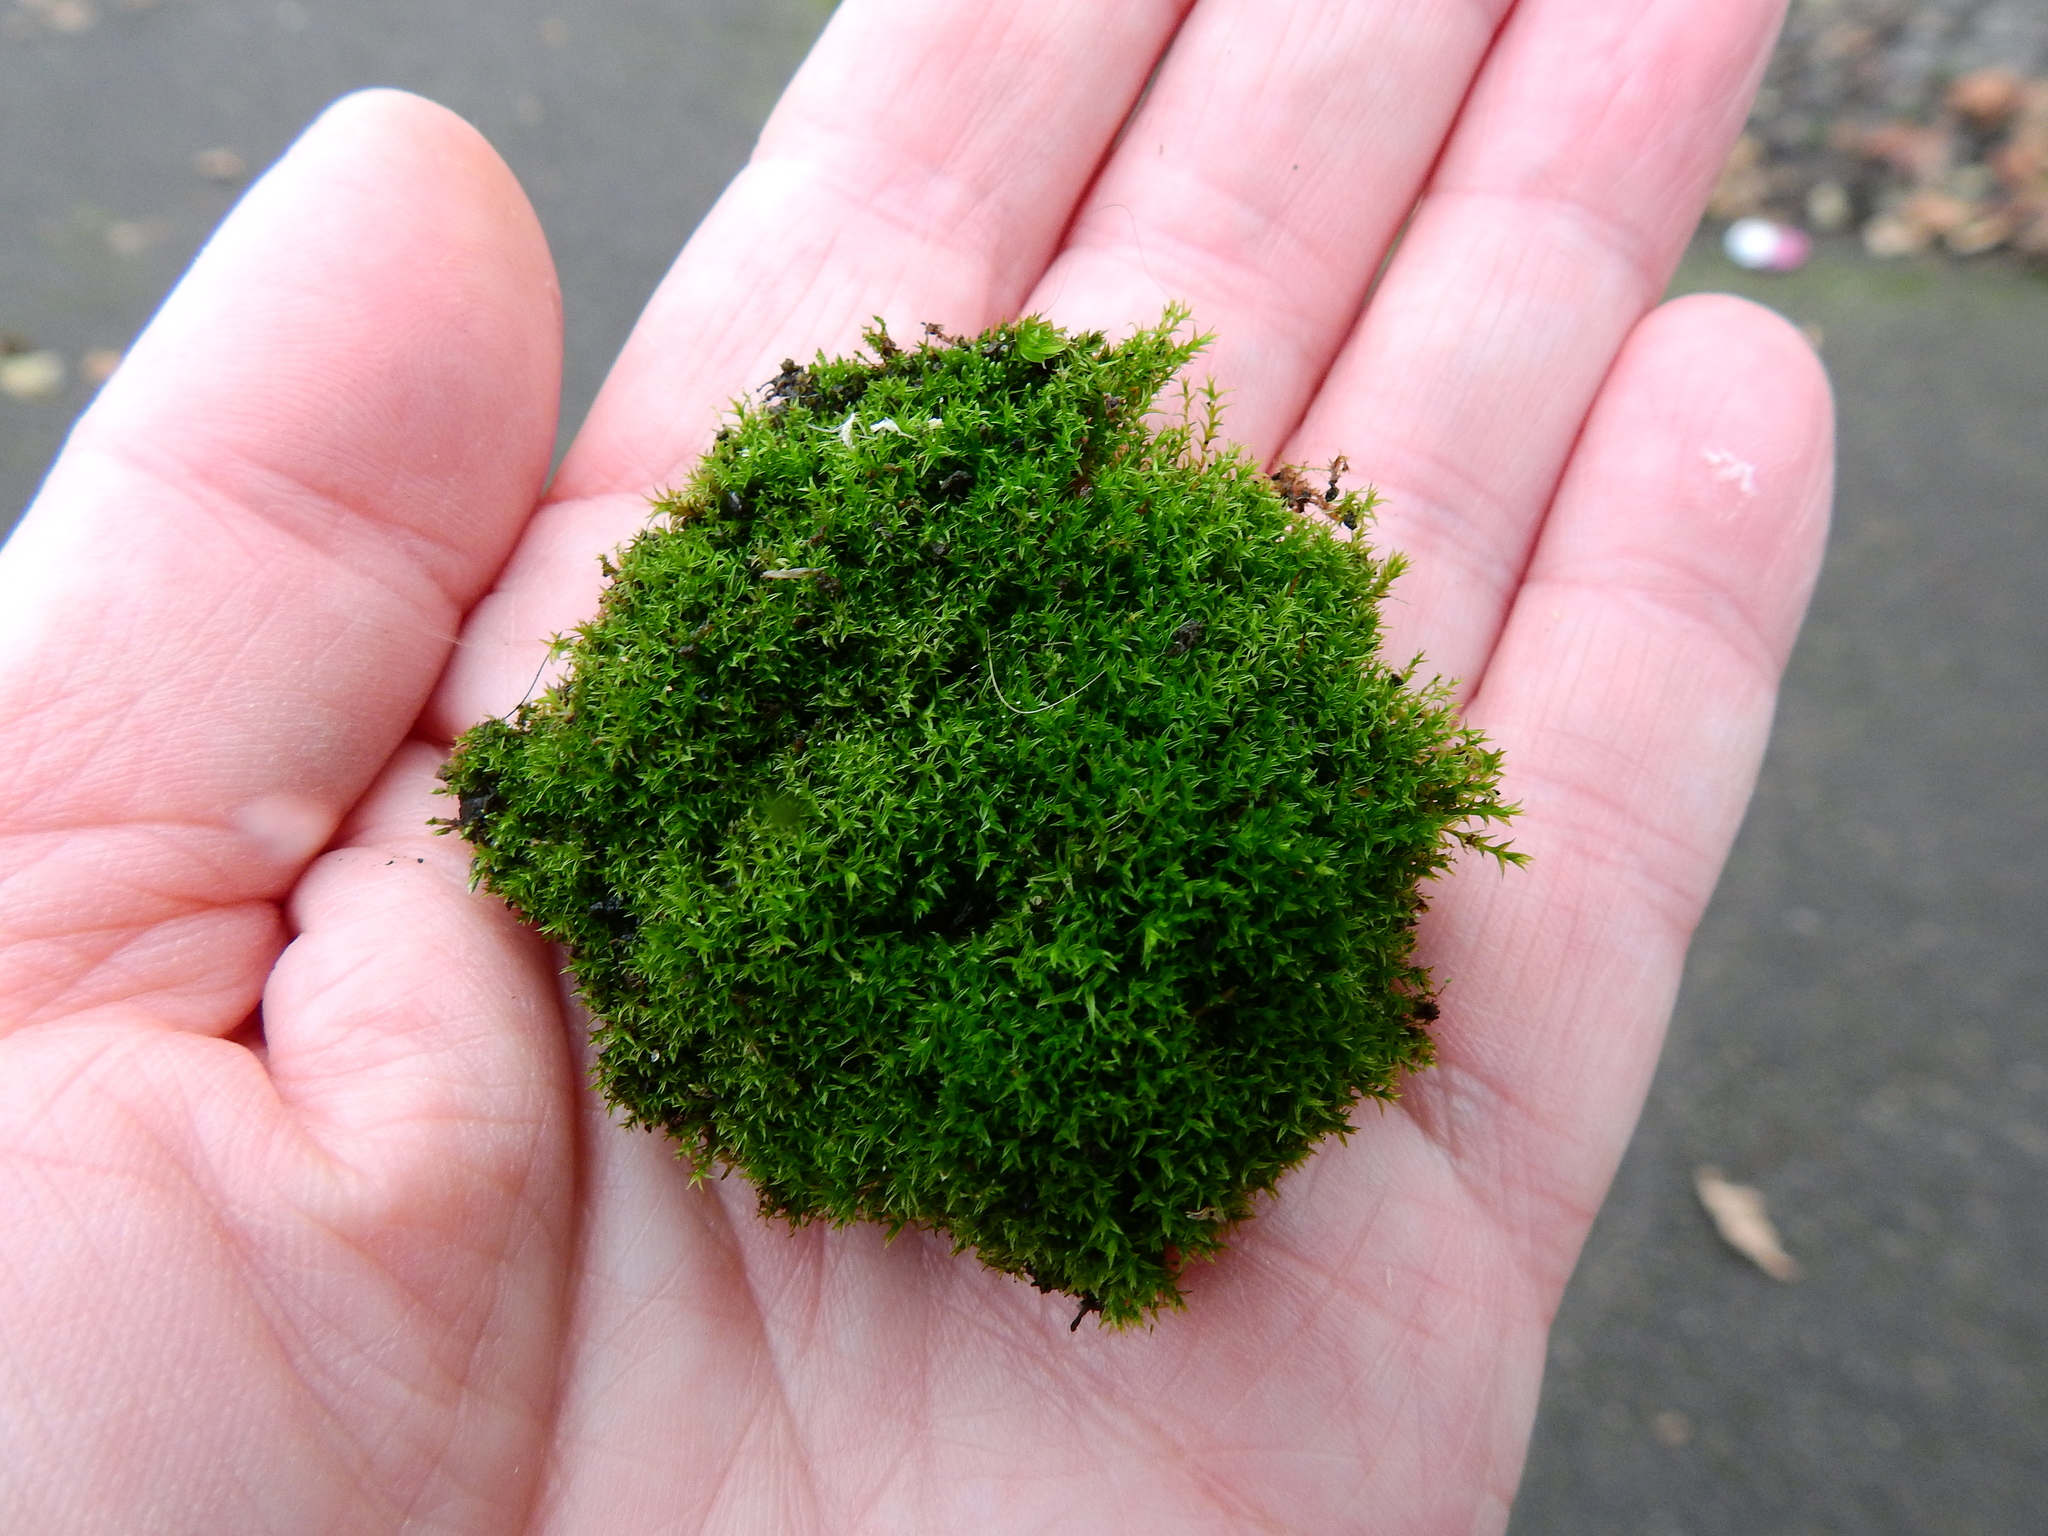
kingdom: Plantae
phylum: Bryophyta
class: Bryopsida
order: Dicranales
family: Ditrichaceae
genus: Ceratodon
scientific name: Ceratodon purpureus
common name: Redshank
